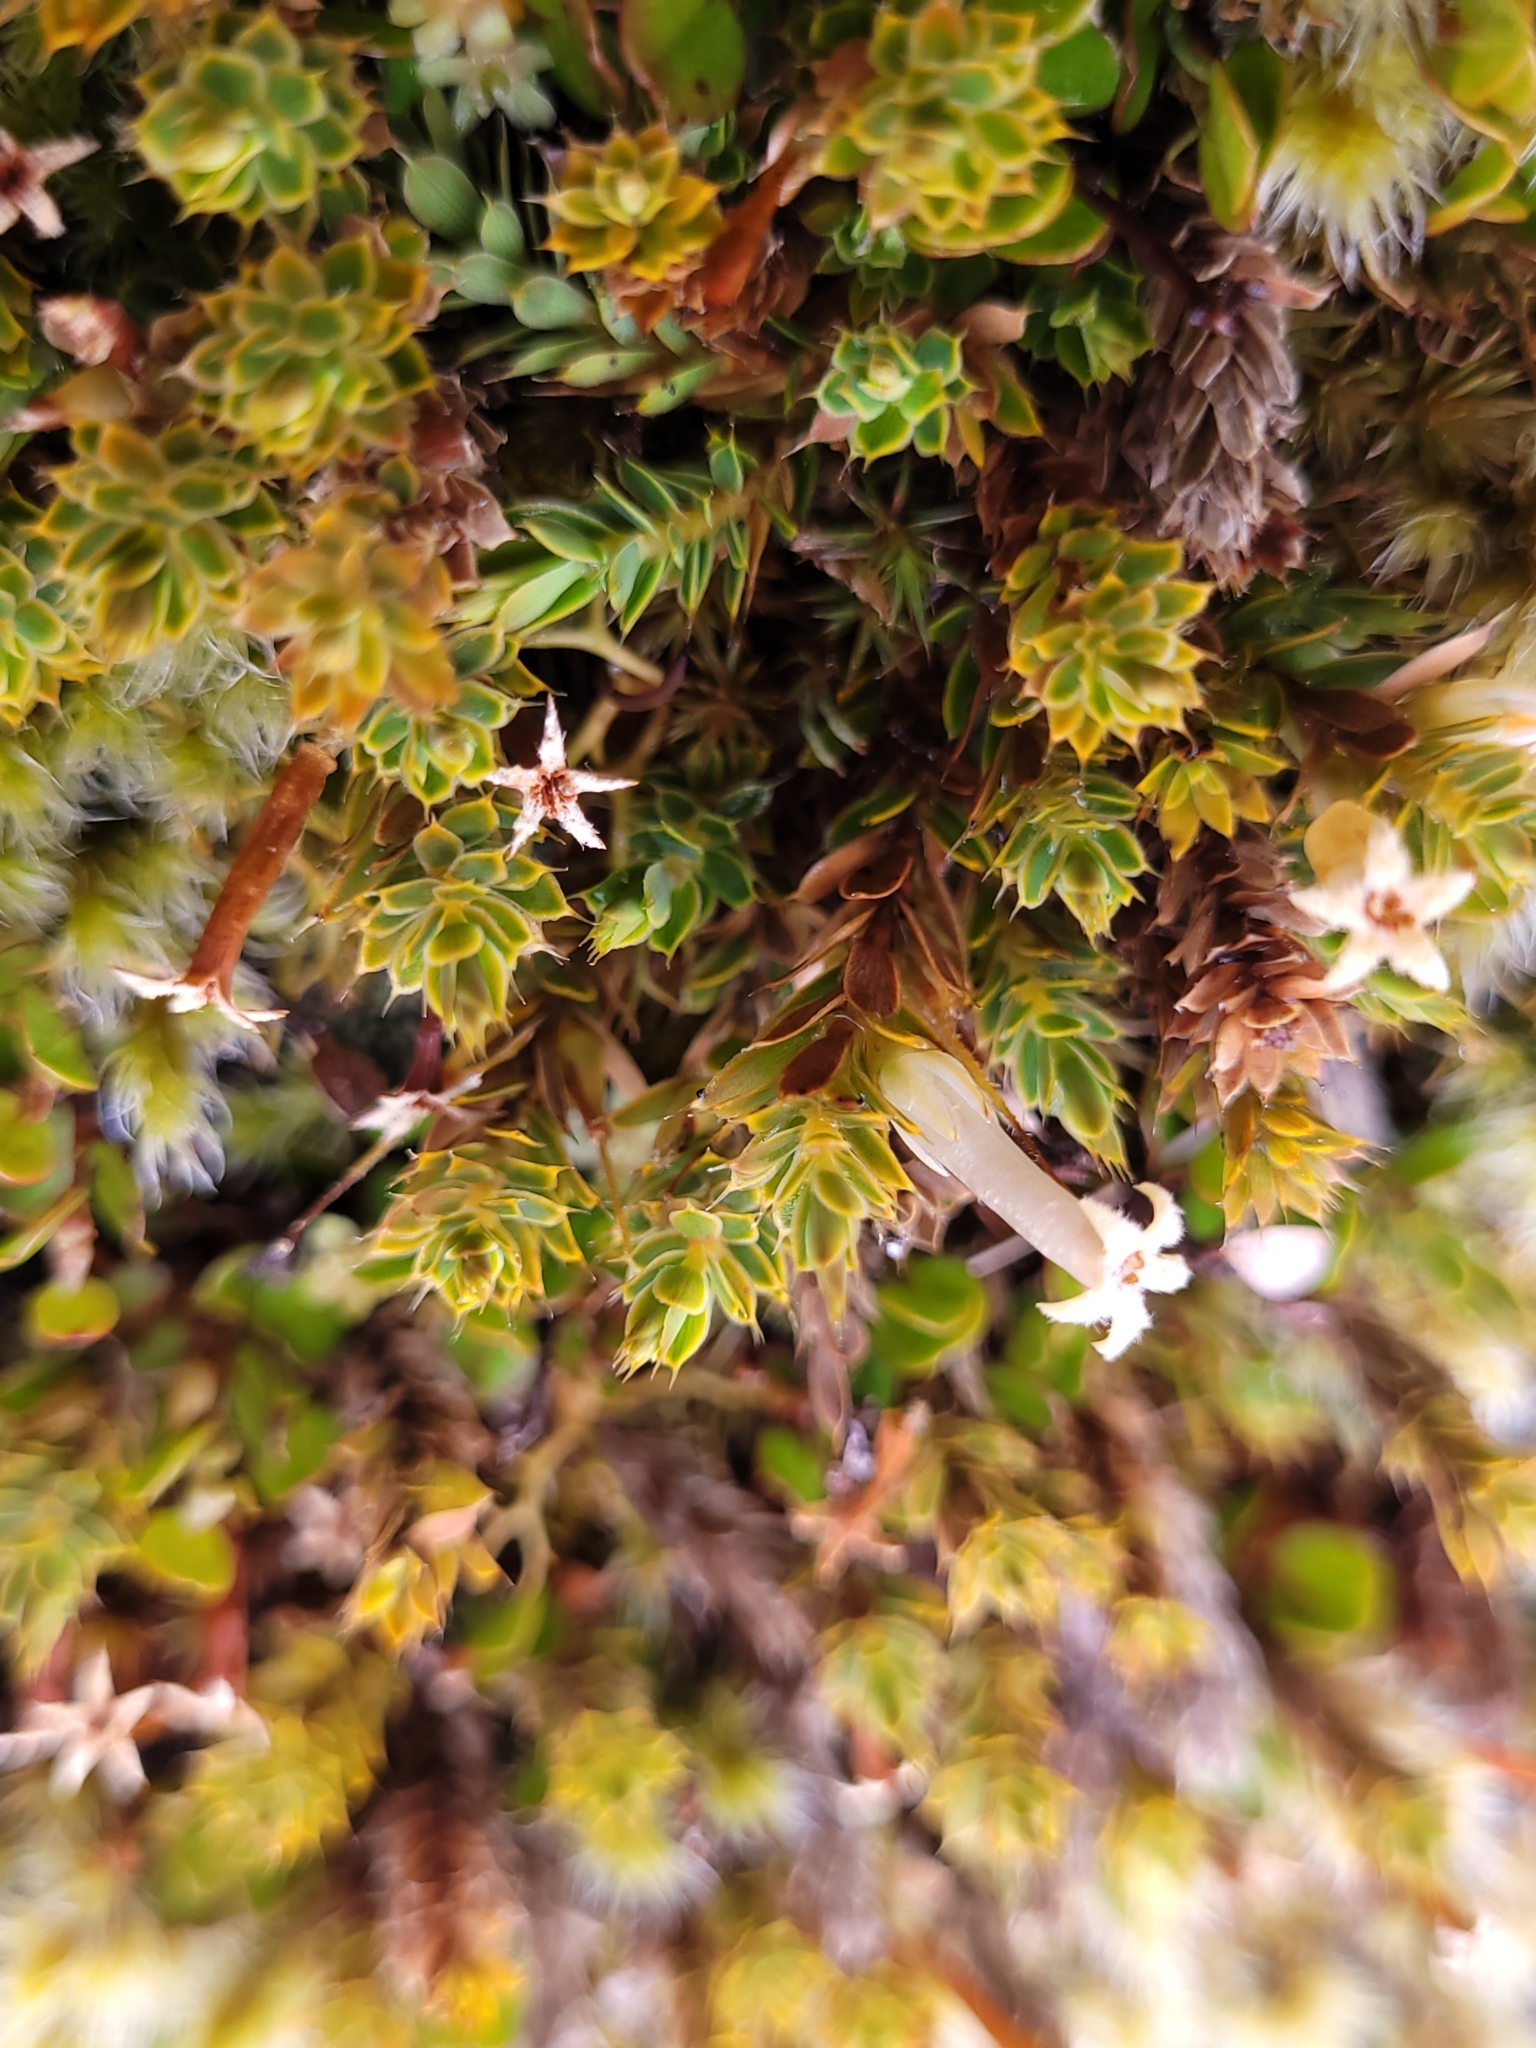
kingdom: Plantae
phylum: Tracheophyta
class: Magnoliopsida
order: Ericales
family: Ericaceae
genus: Styphelia
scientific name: Styphelia nesophila
